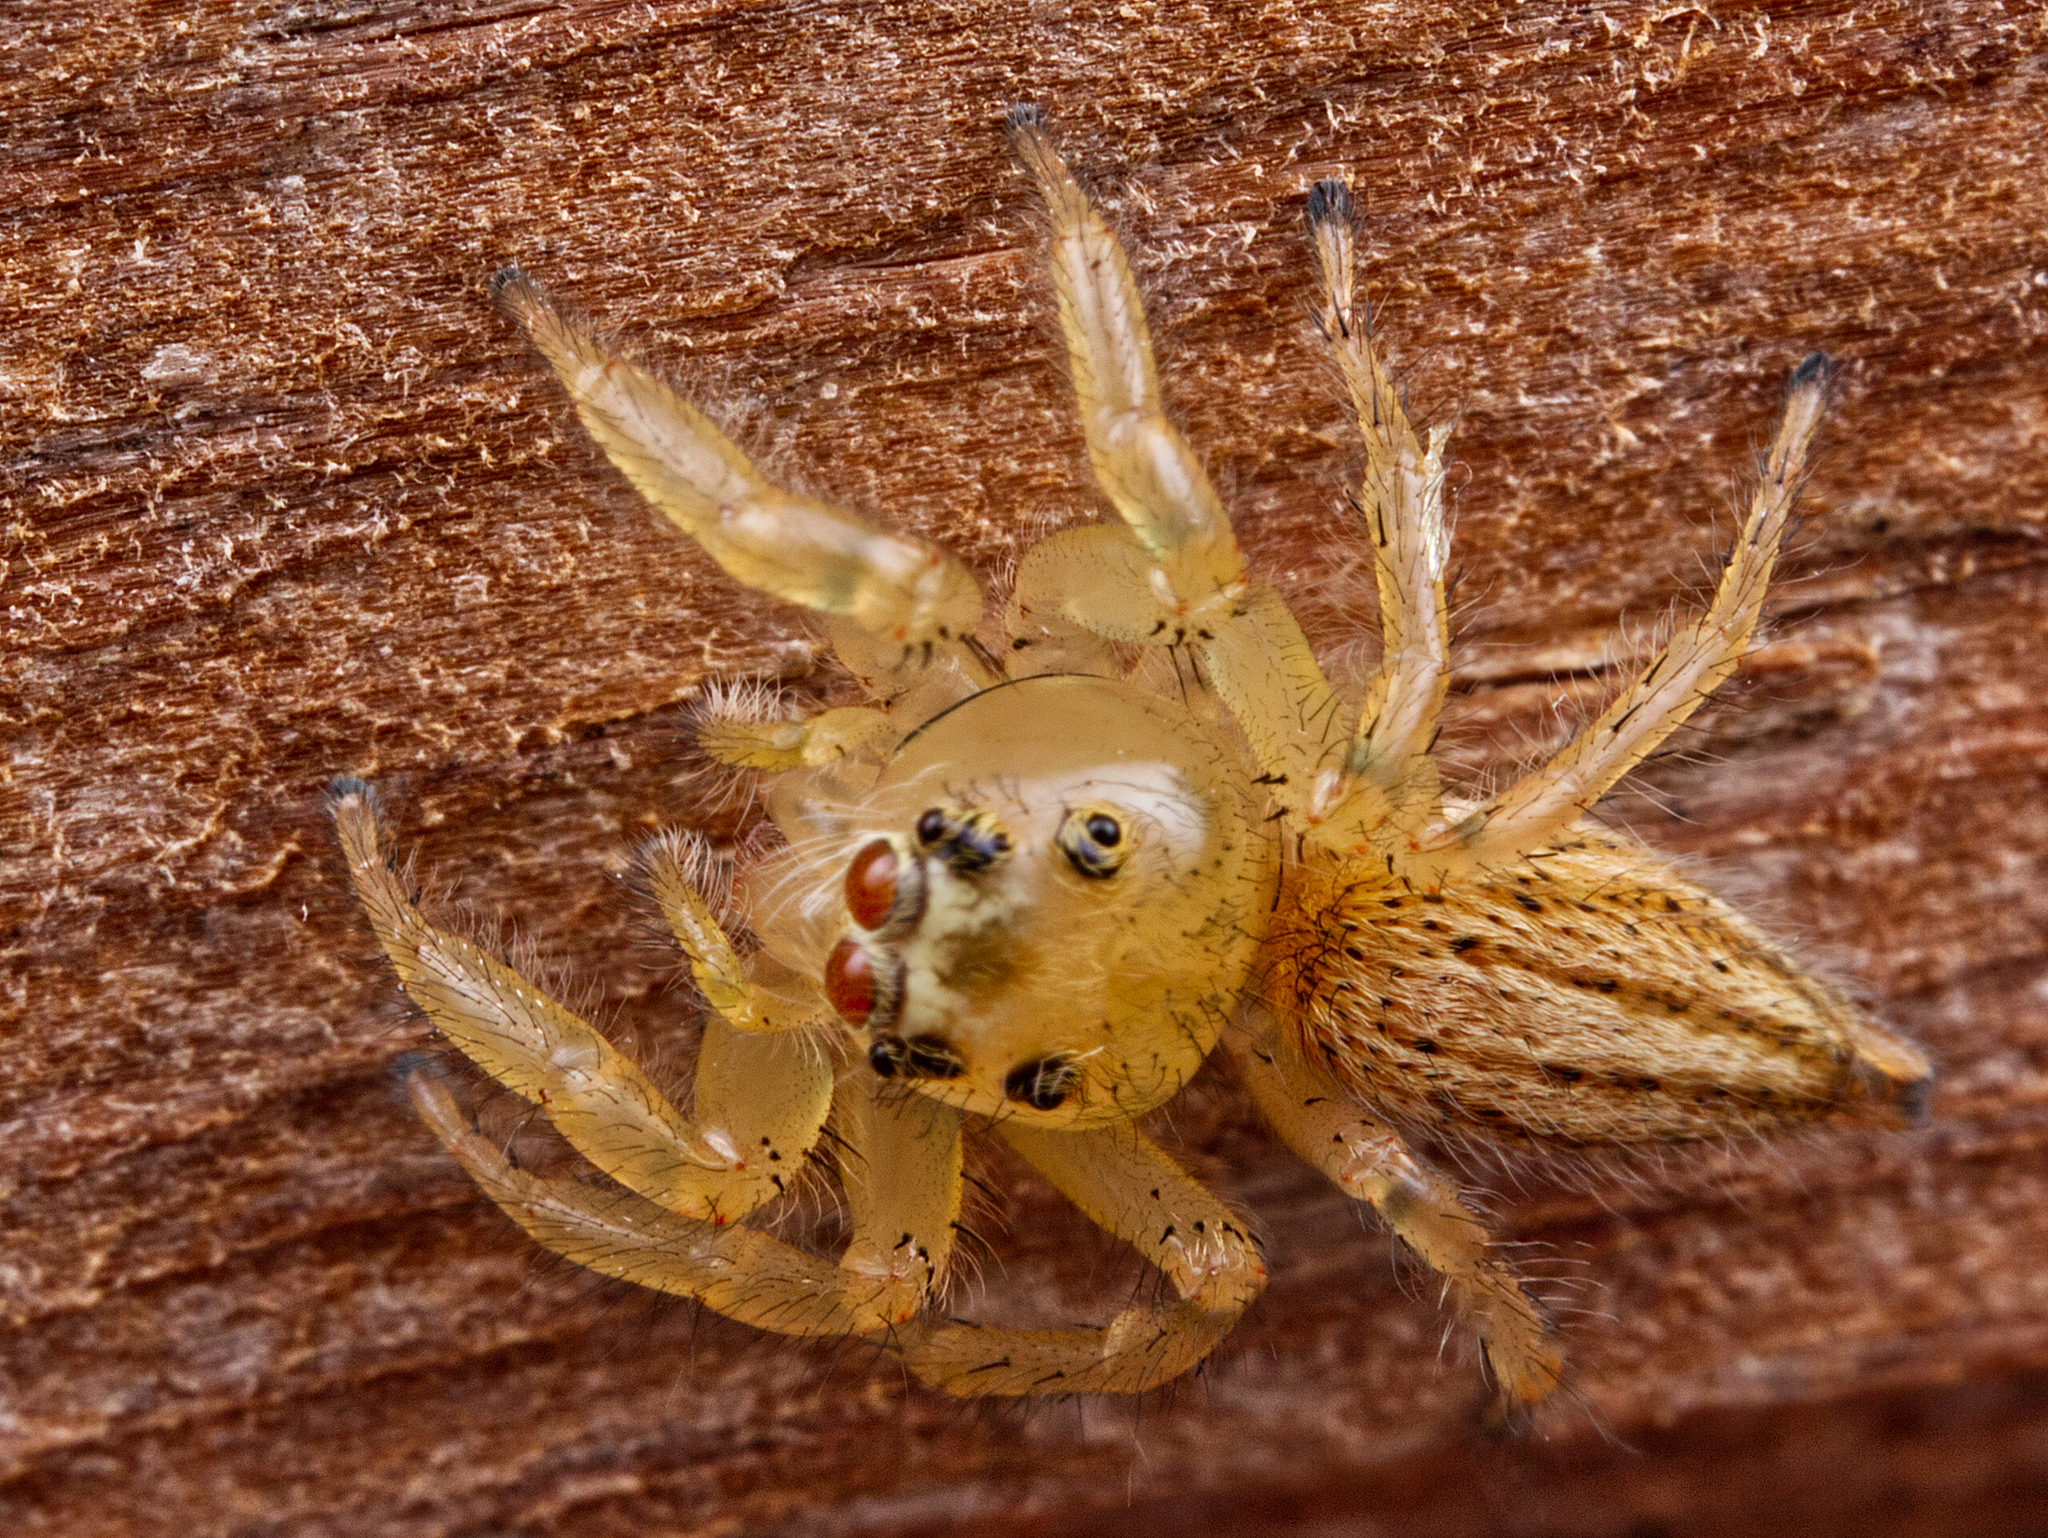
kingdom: Animalia
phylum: Arthropoda
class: Arachnida
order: Araneae
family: Salticidae
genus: Colonus
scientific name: Colonus puerperus
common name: Jumping spiders
